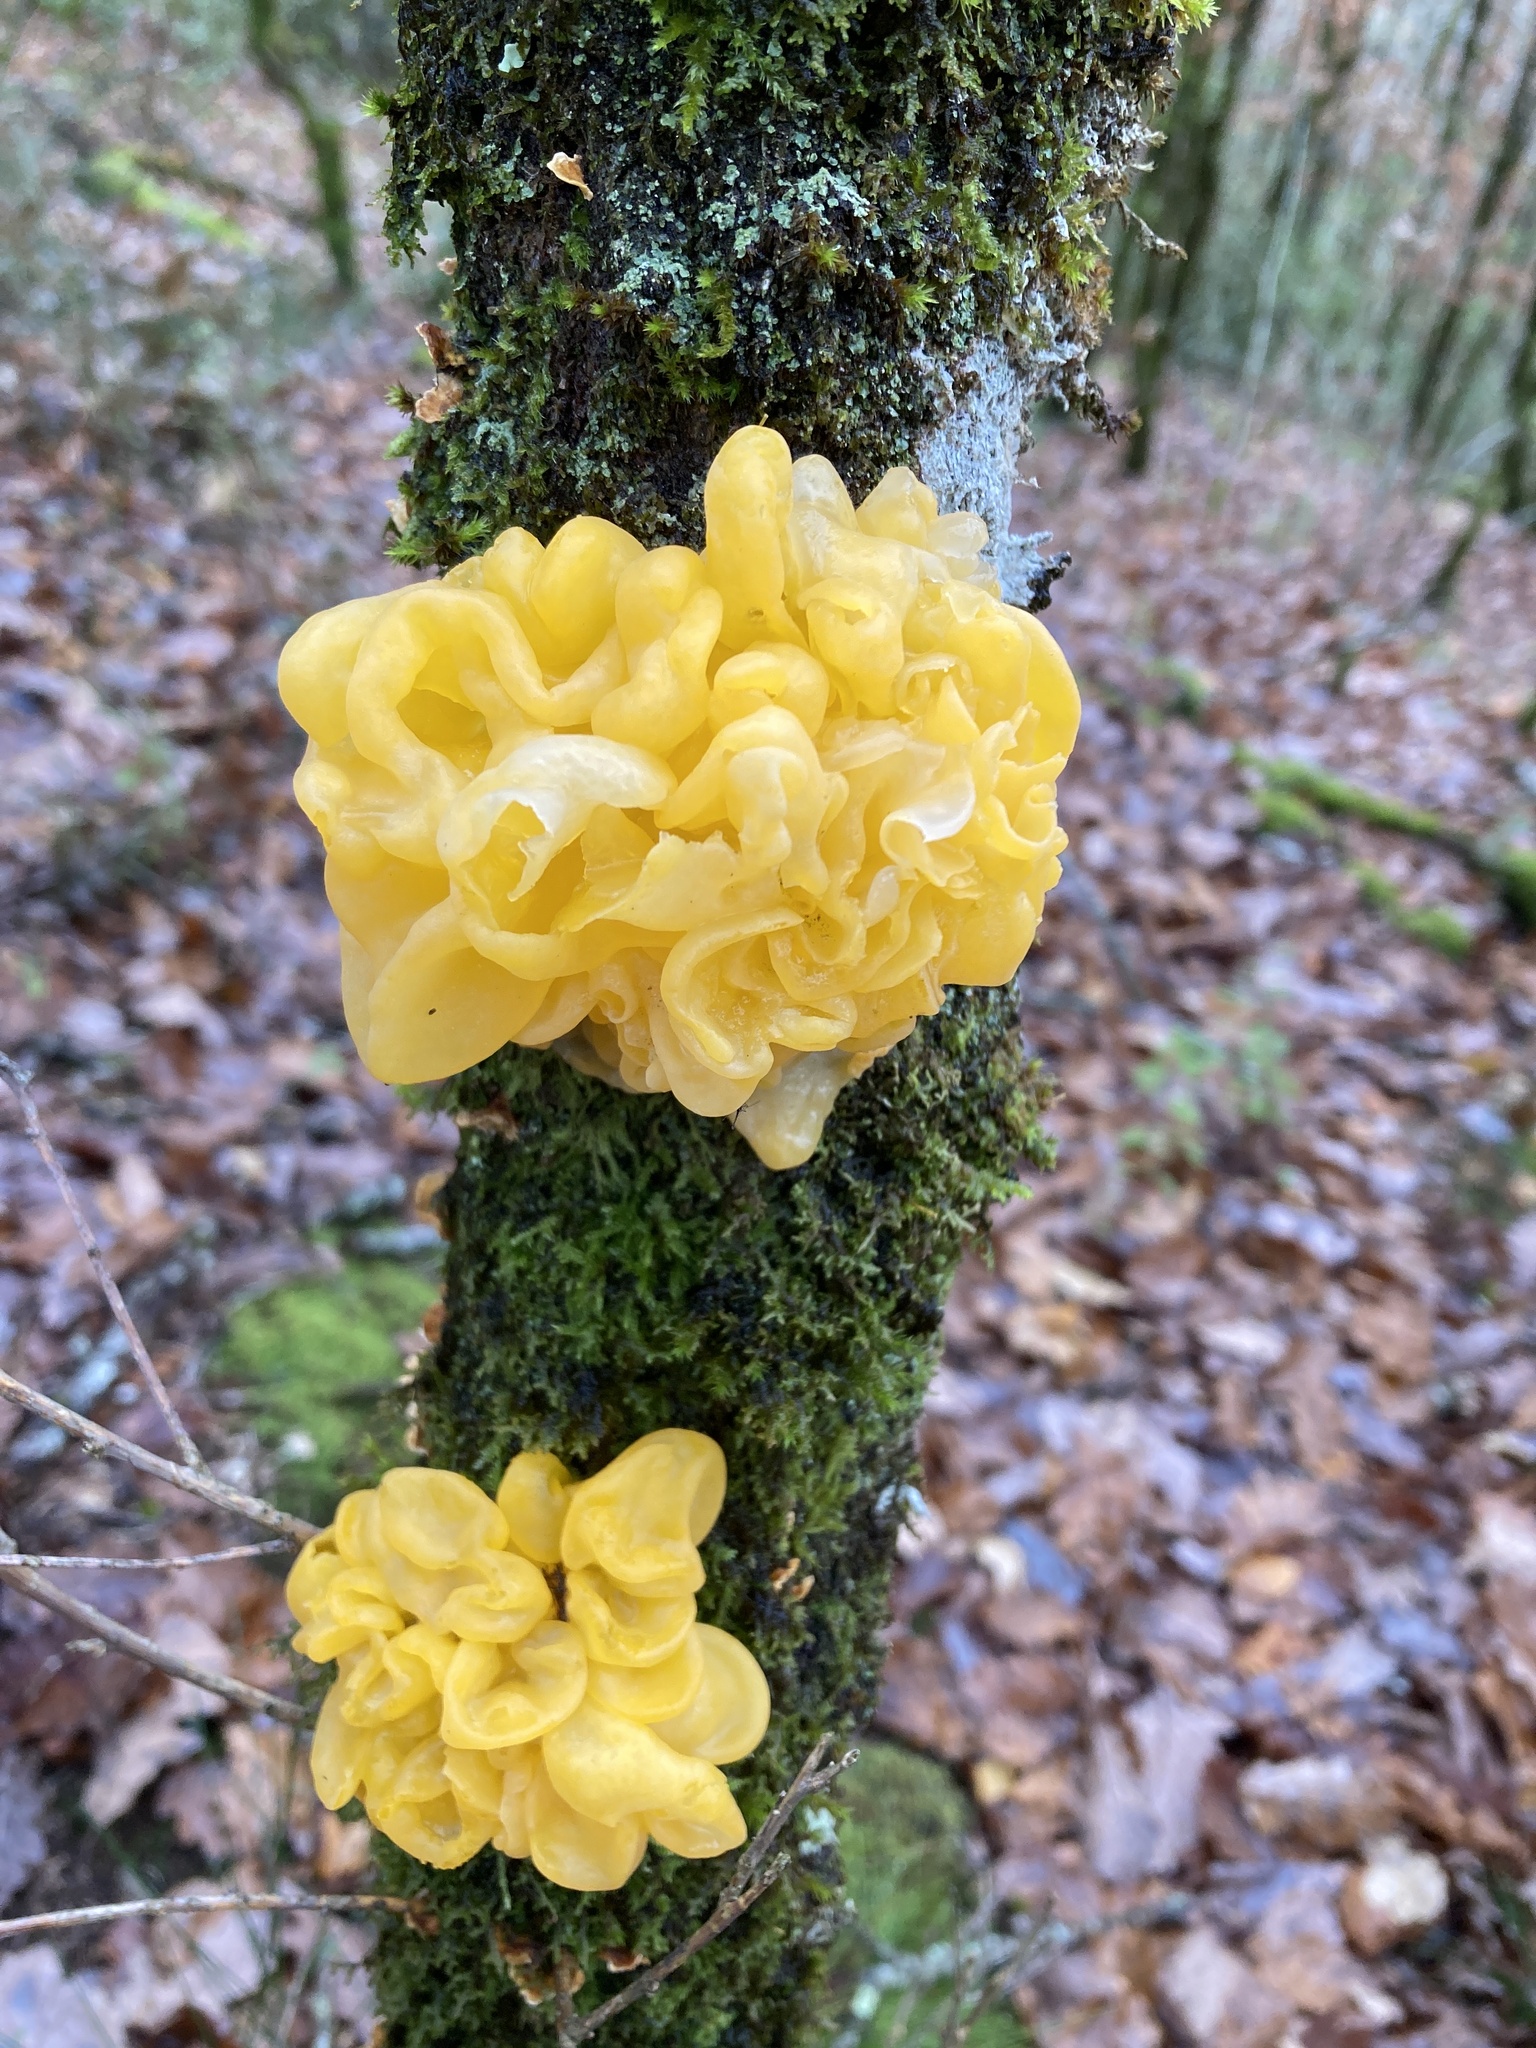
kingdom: Fungi
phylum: Basidiomycota
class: Tremellomycetes
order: Tremellales
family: Naemateliaceae
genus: Naematelia
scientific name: Naematelia aurantia
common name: Golden ear
